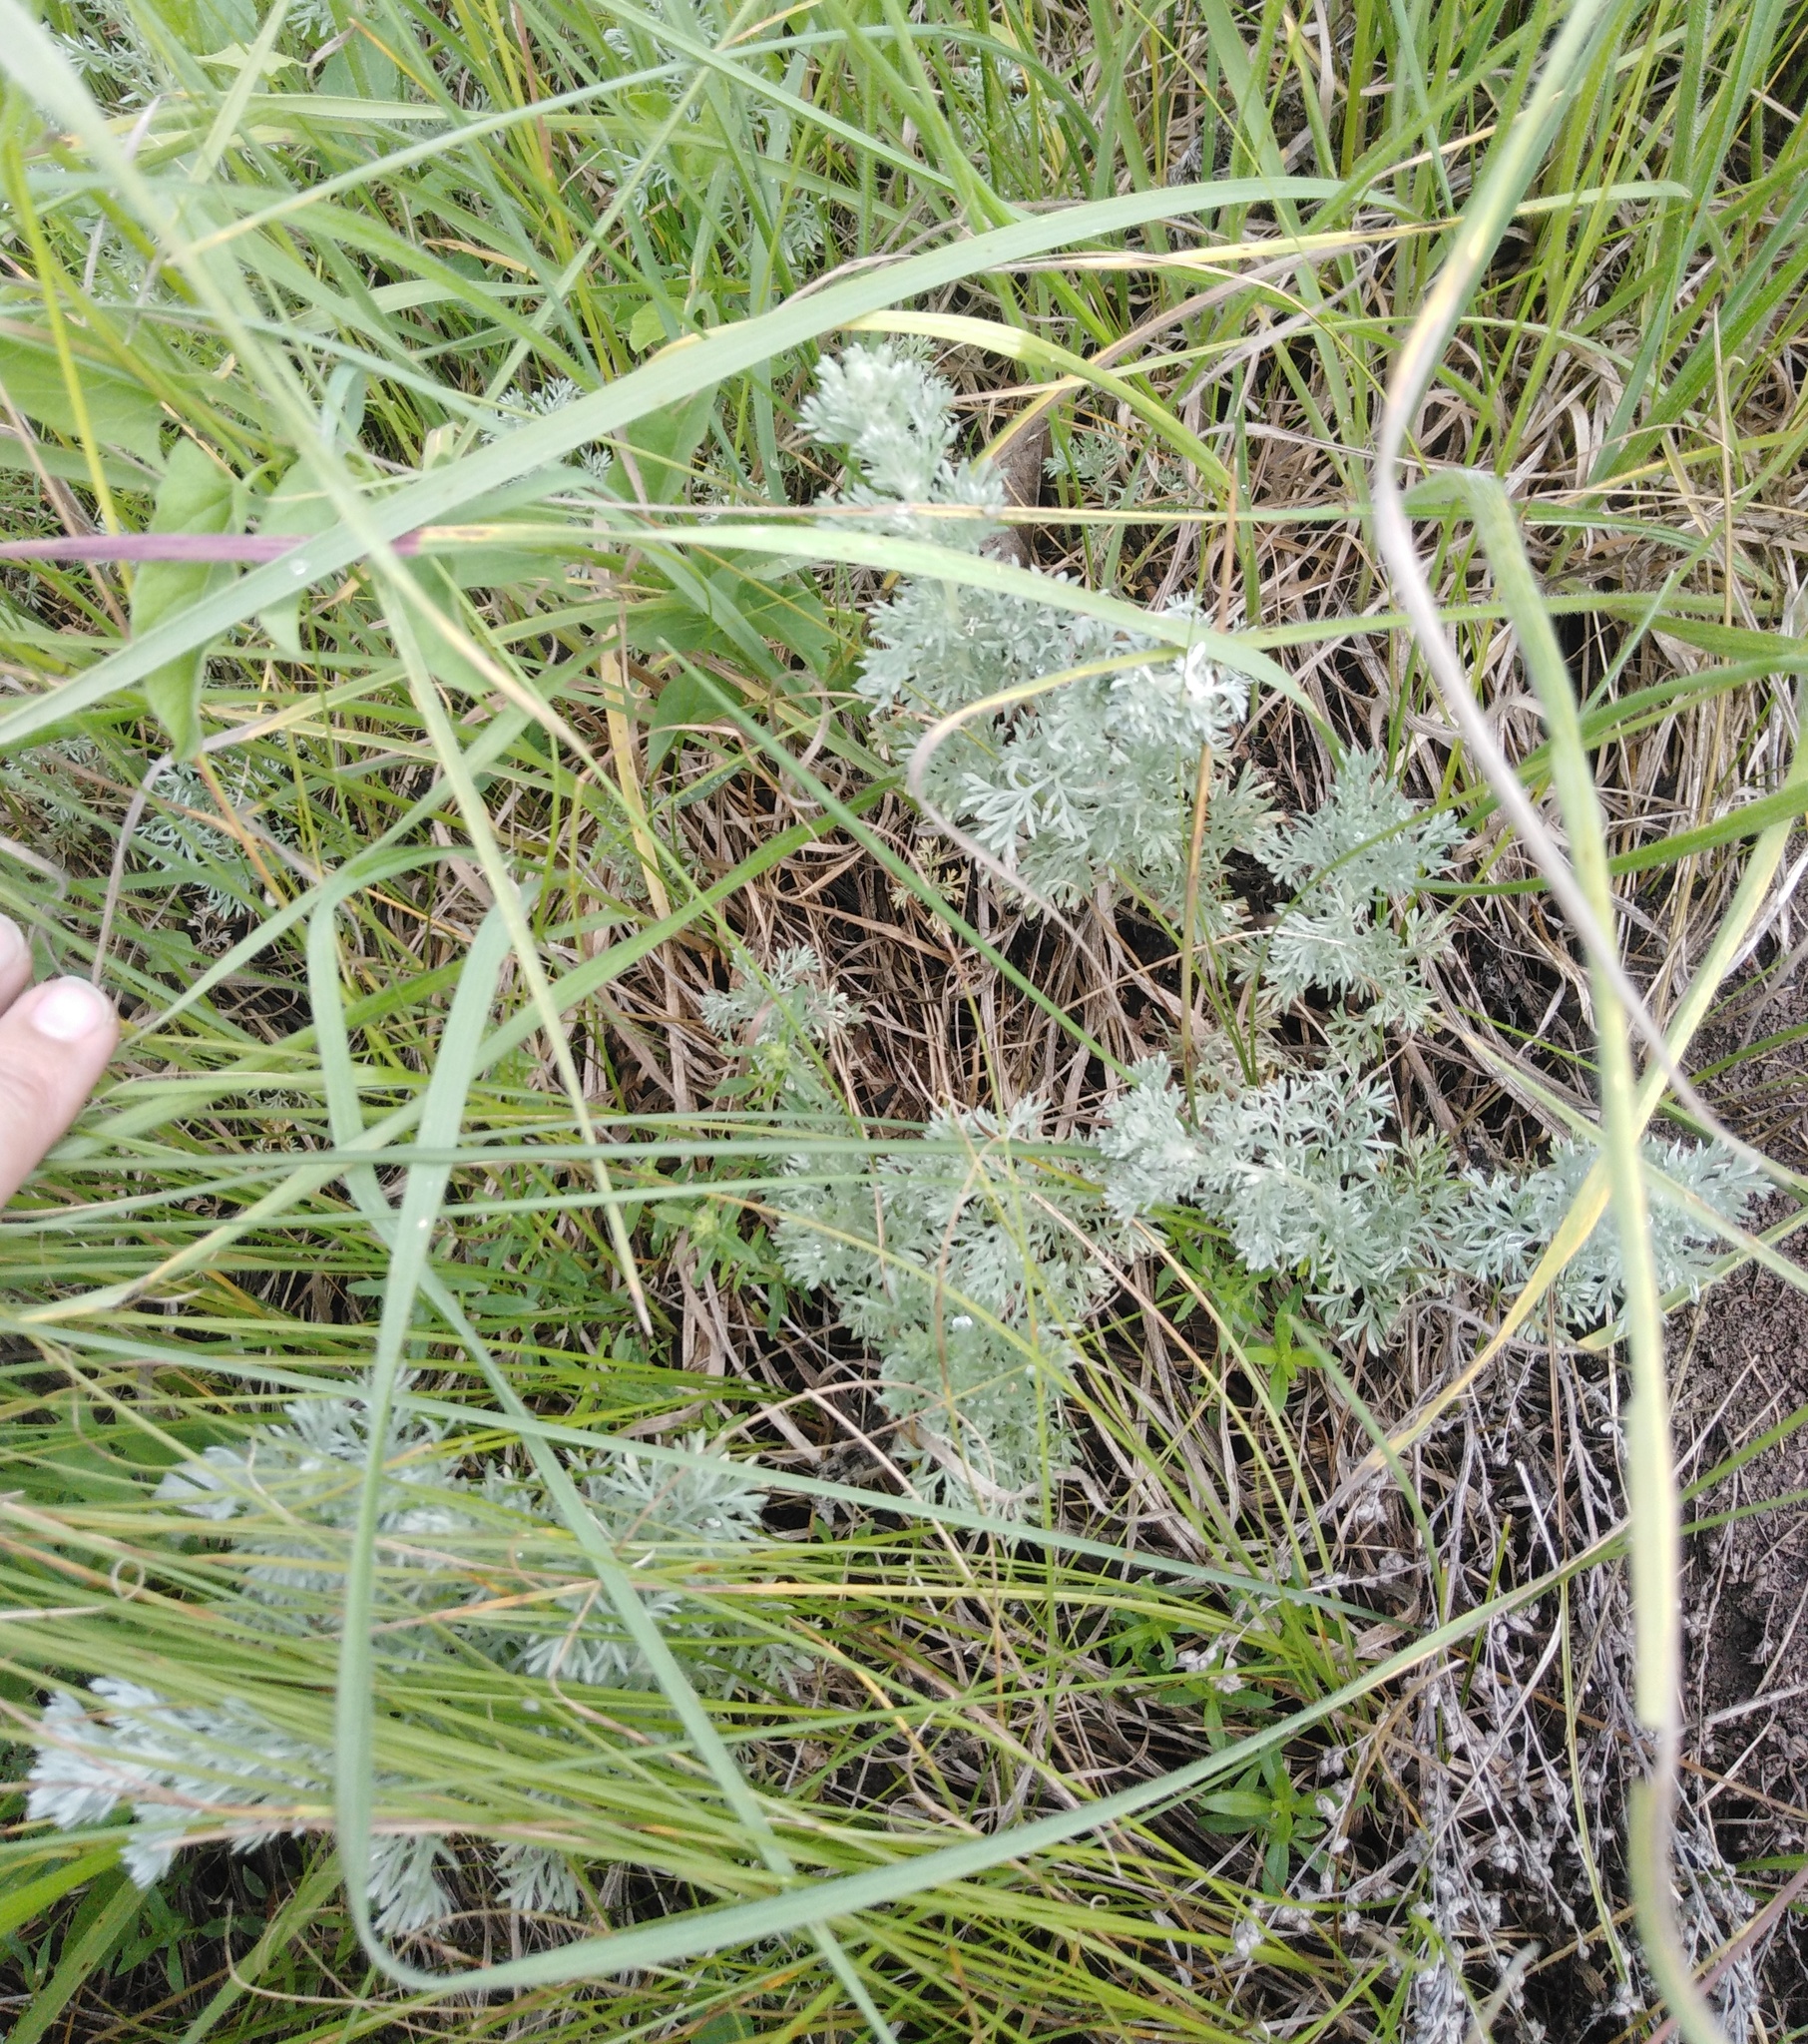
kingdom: Plantae
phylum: Tracheophyta
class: Magnoliopsida
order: Asterales
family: Asteraceae
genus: Artemisia
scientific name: Artemisia austriaca
